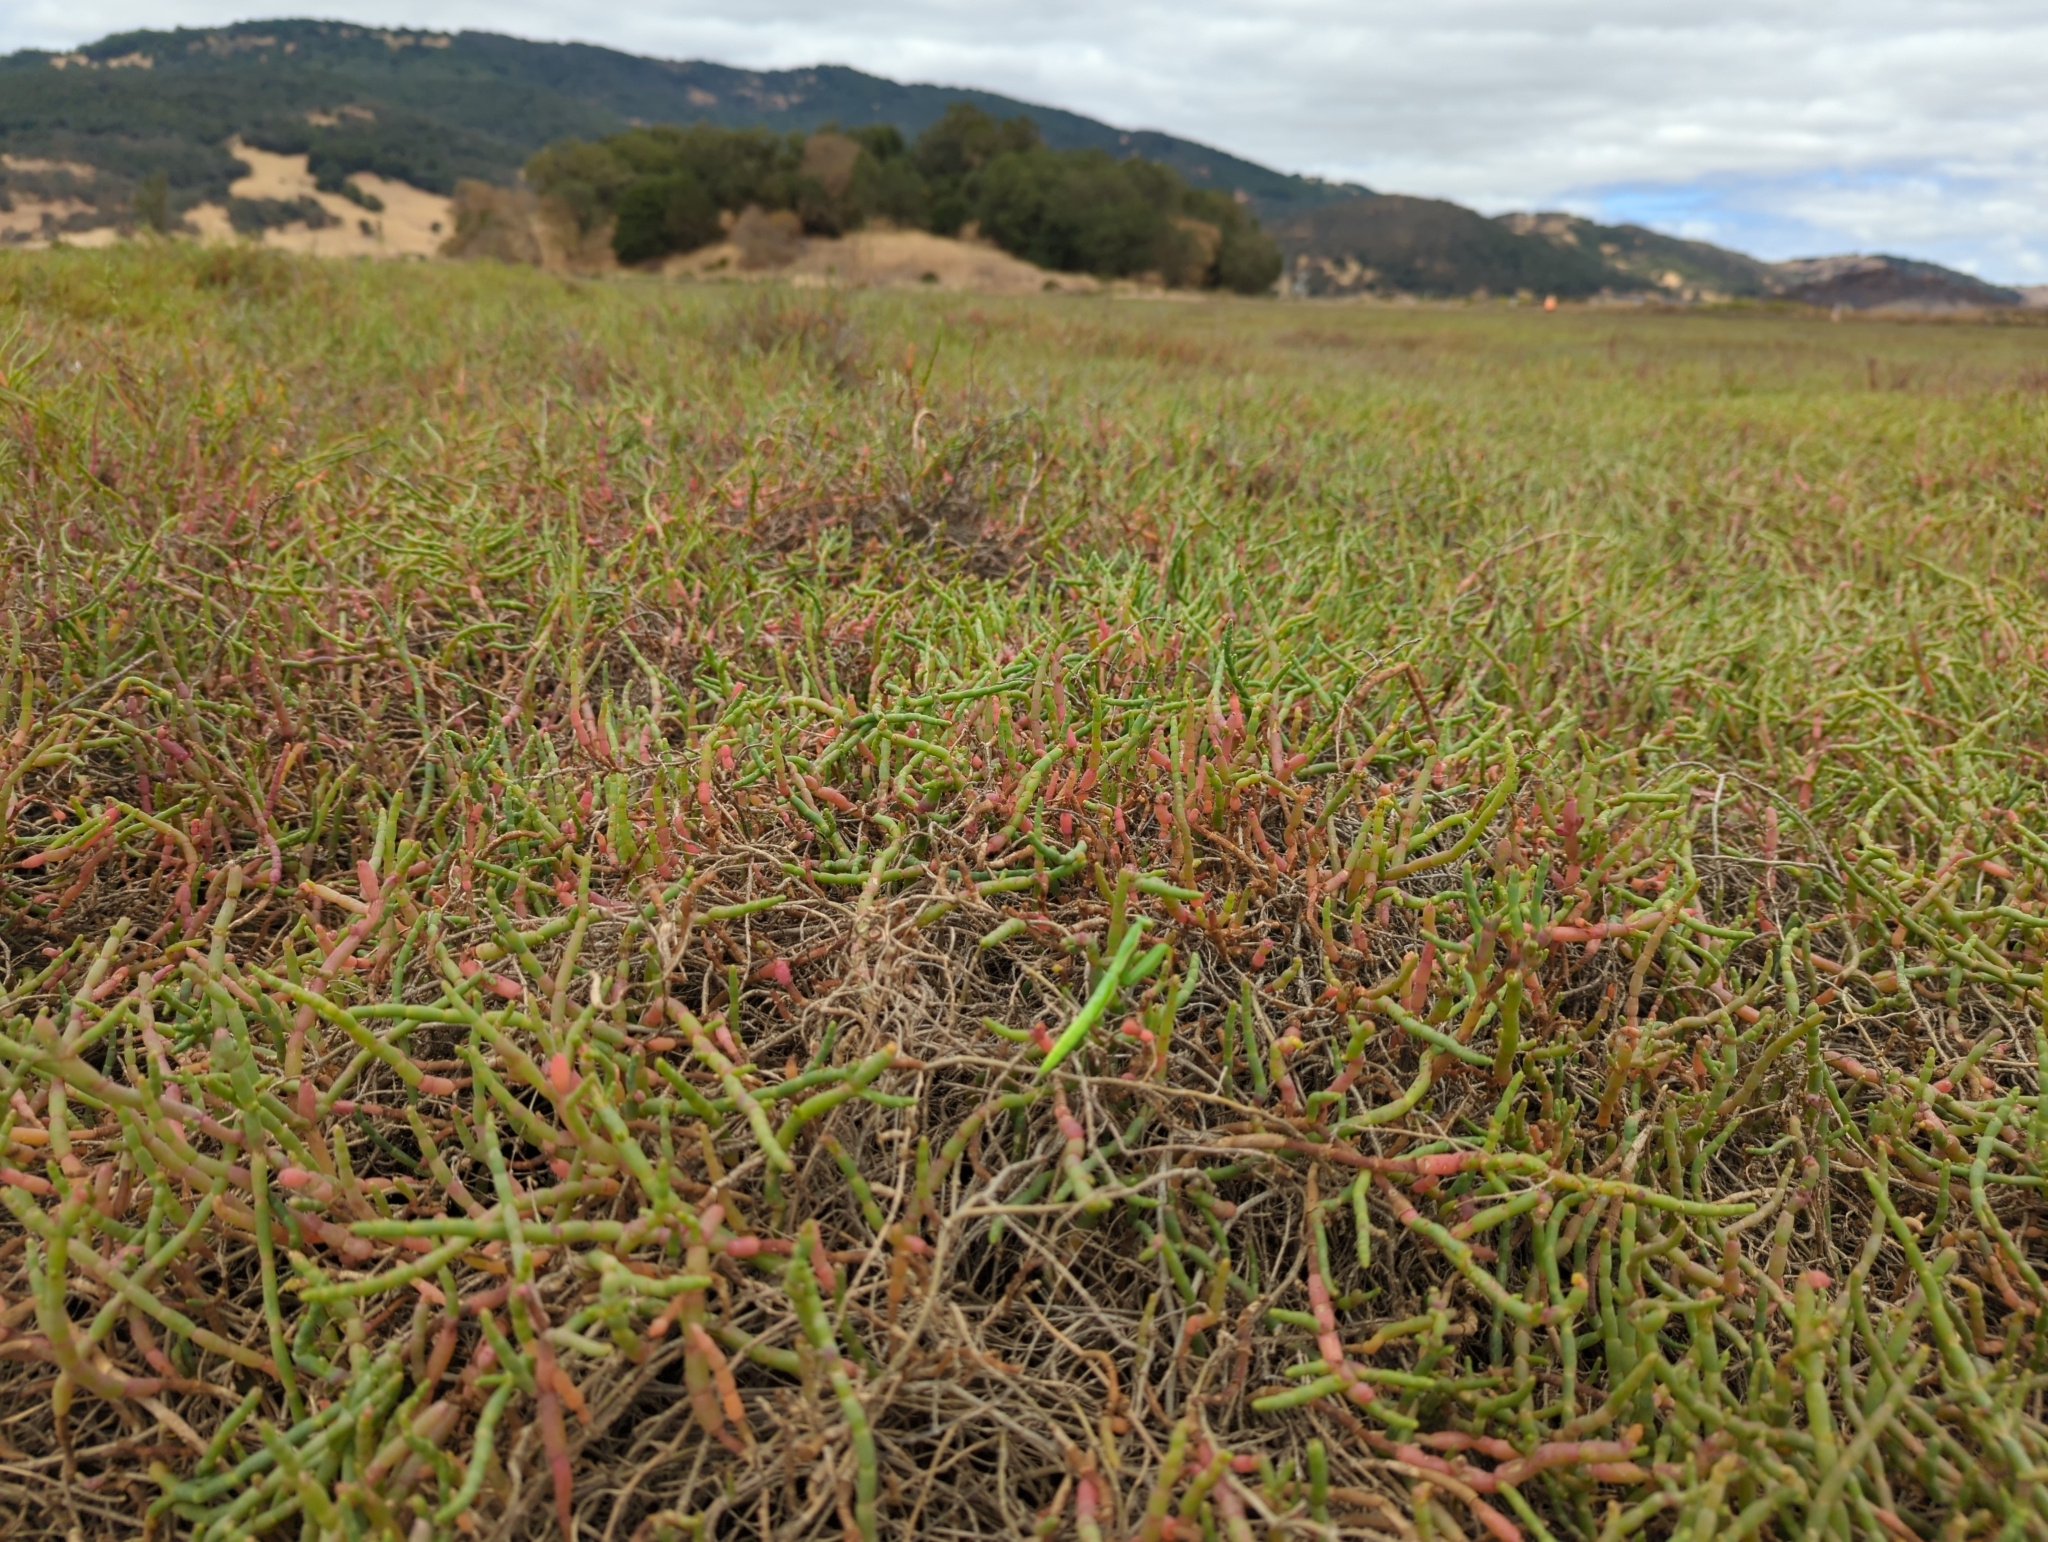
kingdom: Animalia
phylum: Arthropoda
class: Insecta
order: Mantodea
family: Mantidae
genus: Mantis
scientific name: Mantis religiosa
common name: Praying mantis
